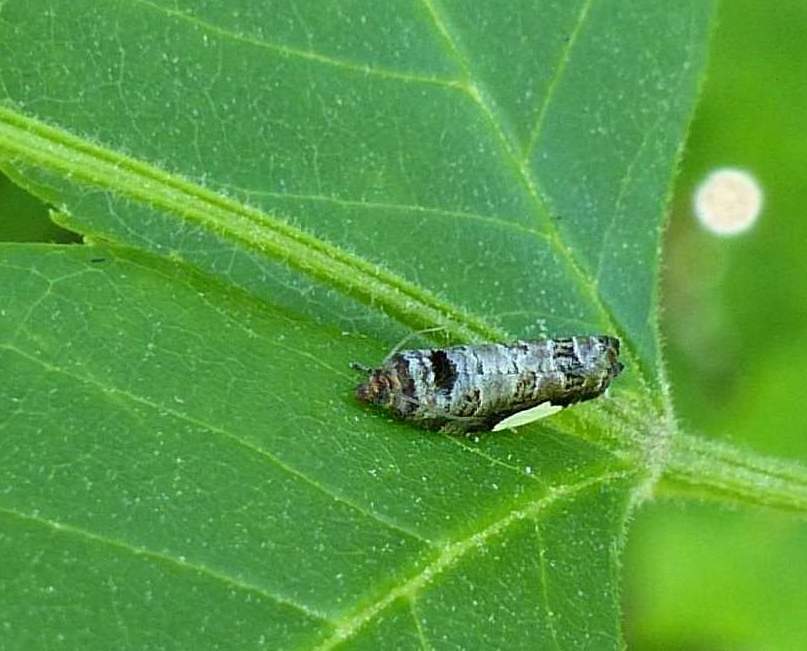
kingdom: Animalia
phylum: Arthropoda
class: Insecta
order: Lepidoptera
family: Tortricidae
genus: Hedya
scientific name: Hedya chionosema
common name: White-spotted hedya moth
